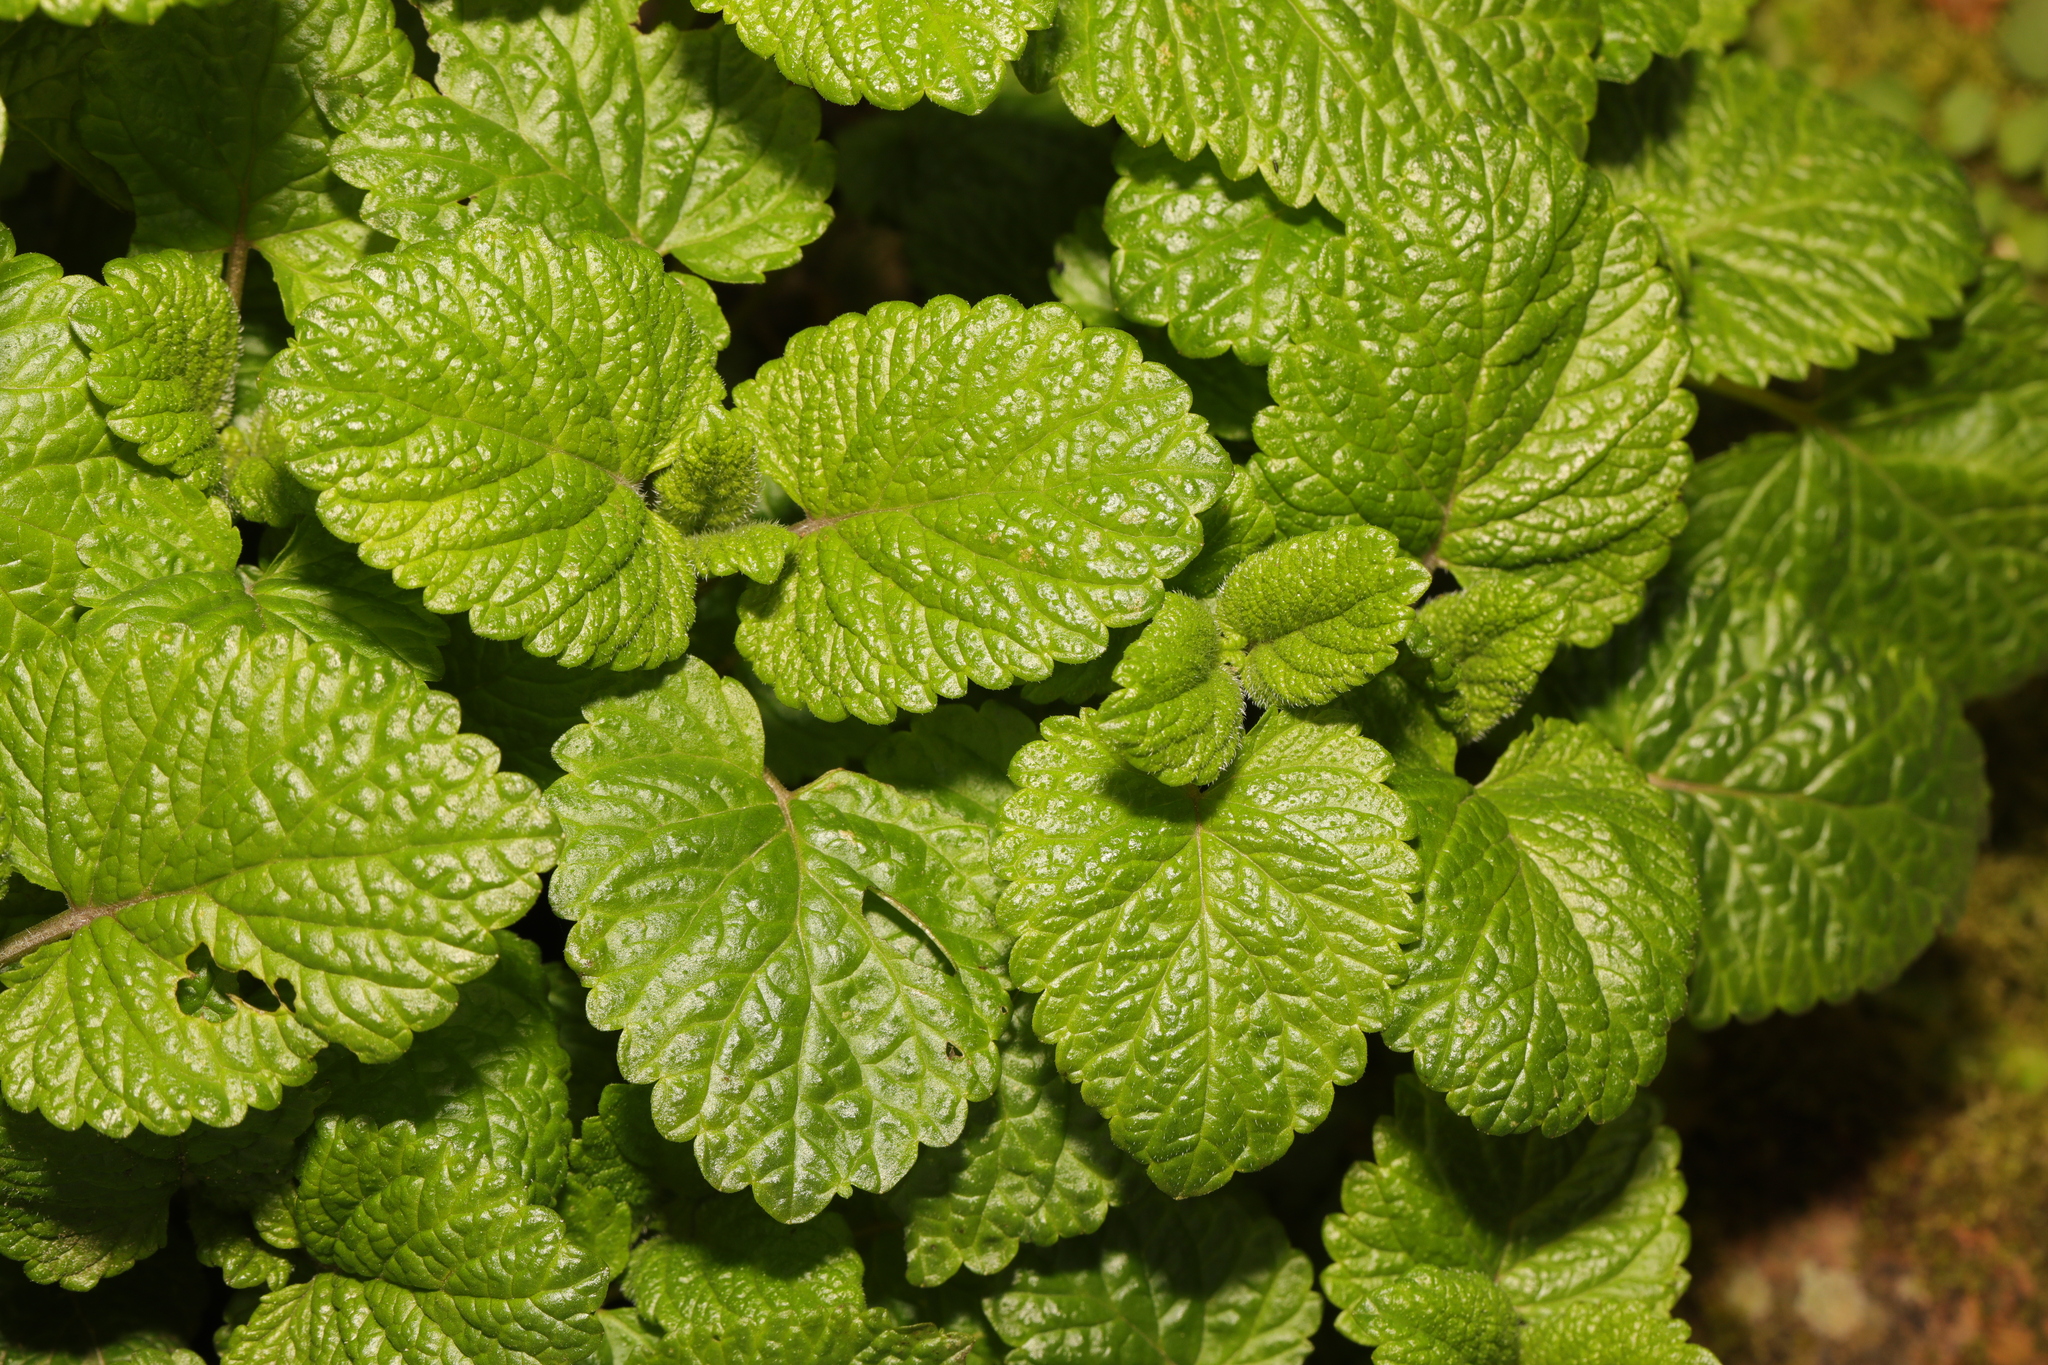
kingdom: Plantae
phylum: Tracheophyta
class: Magnoliopsida
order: Lamiales
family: Lamiaceae
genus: Melissa
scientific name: Melissa officinalis
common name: Balm
